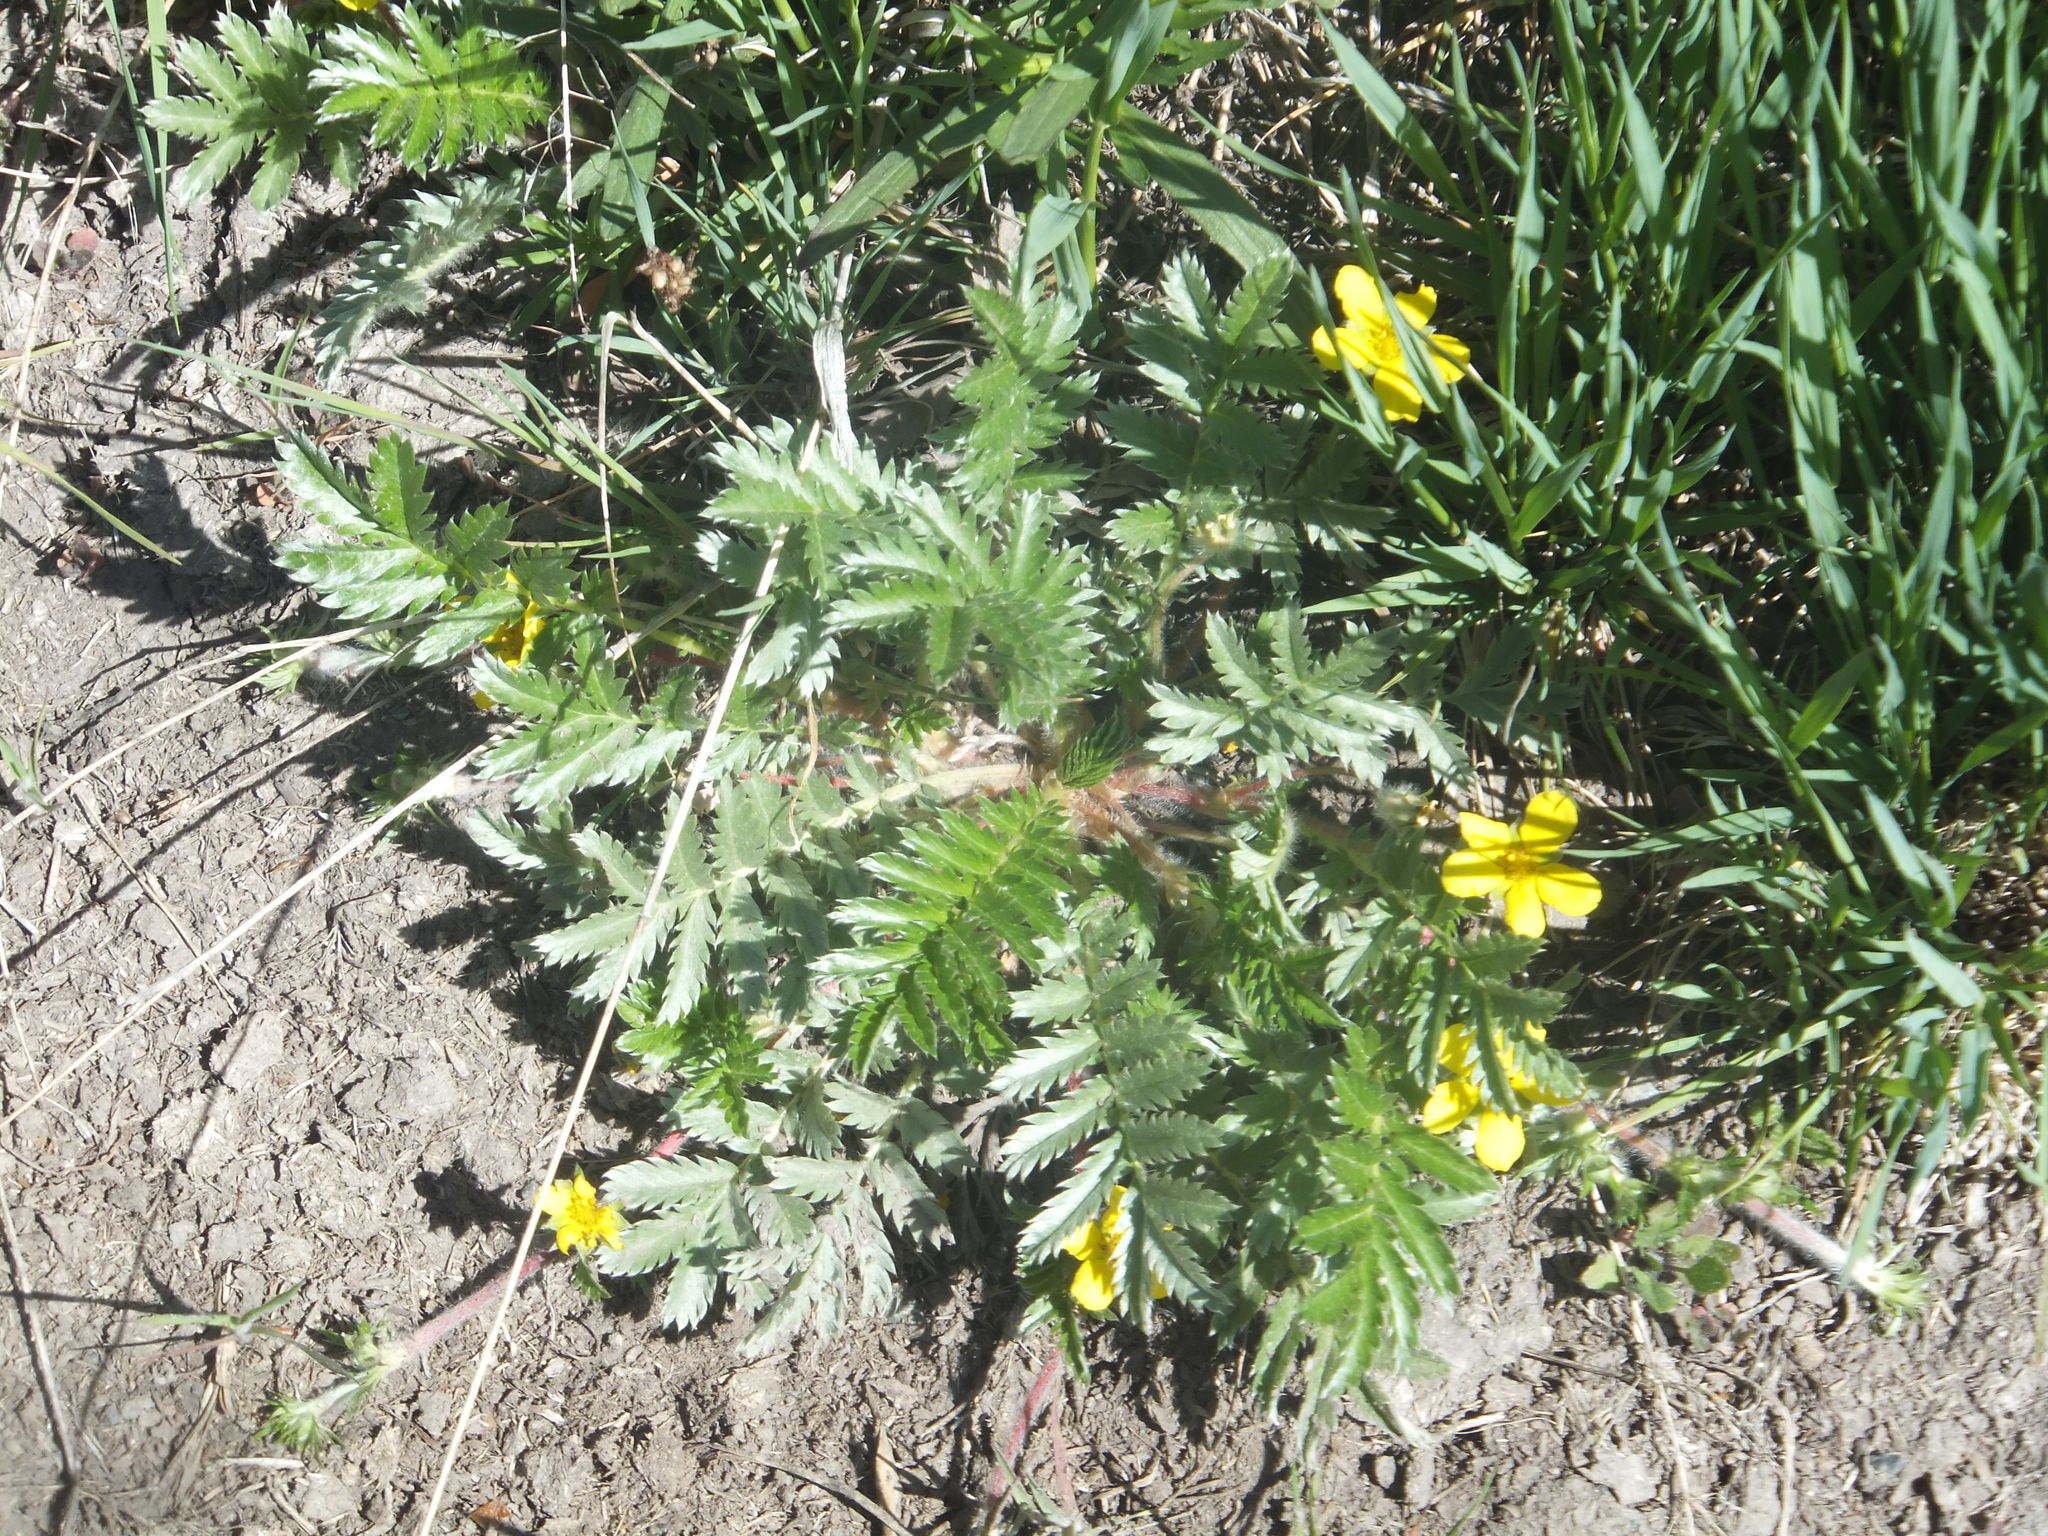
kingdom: Plantae
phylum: Tracheophyta
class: Magnoliopsida
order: Rosales
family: Rosaceae
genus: Argentina
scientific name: Argentina anserina
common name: Common silverweed
